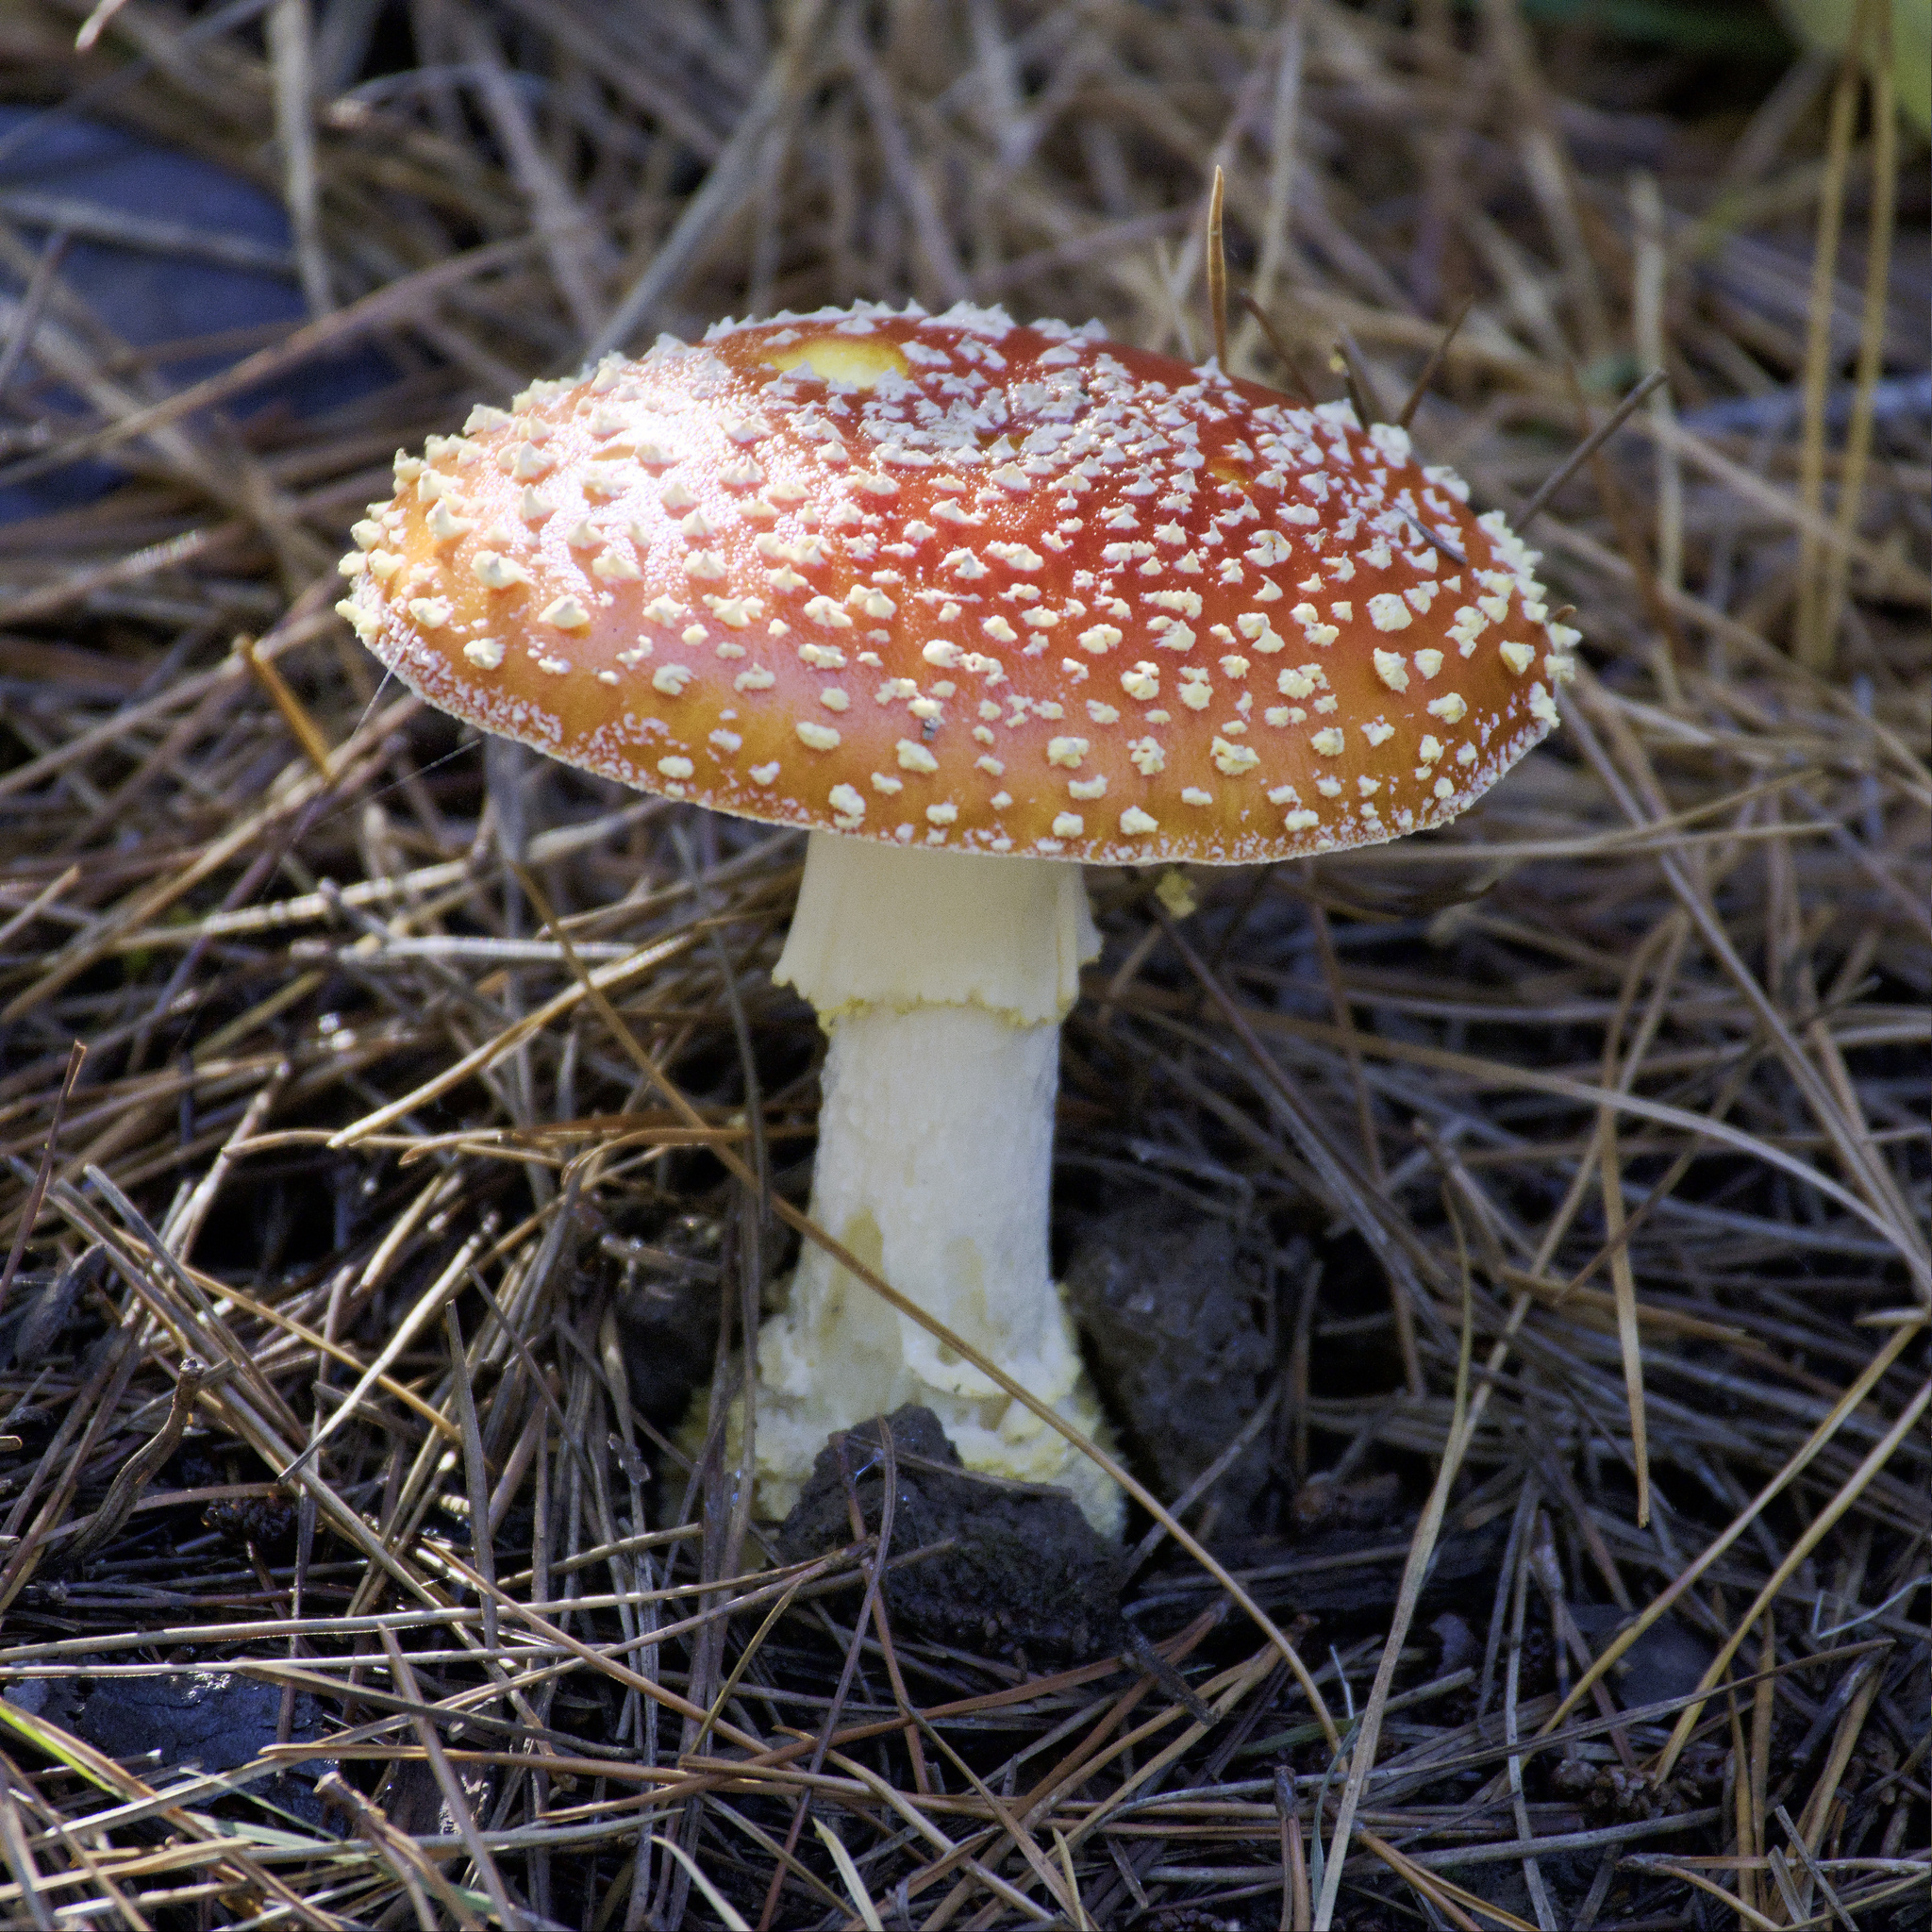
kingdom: Fungi
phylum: Basidiomycota
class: Agaricomycetes
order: Agaricales
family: Amanitaceae
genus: Amanita
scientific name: Amanita muscaria
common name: Fly agaric
